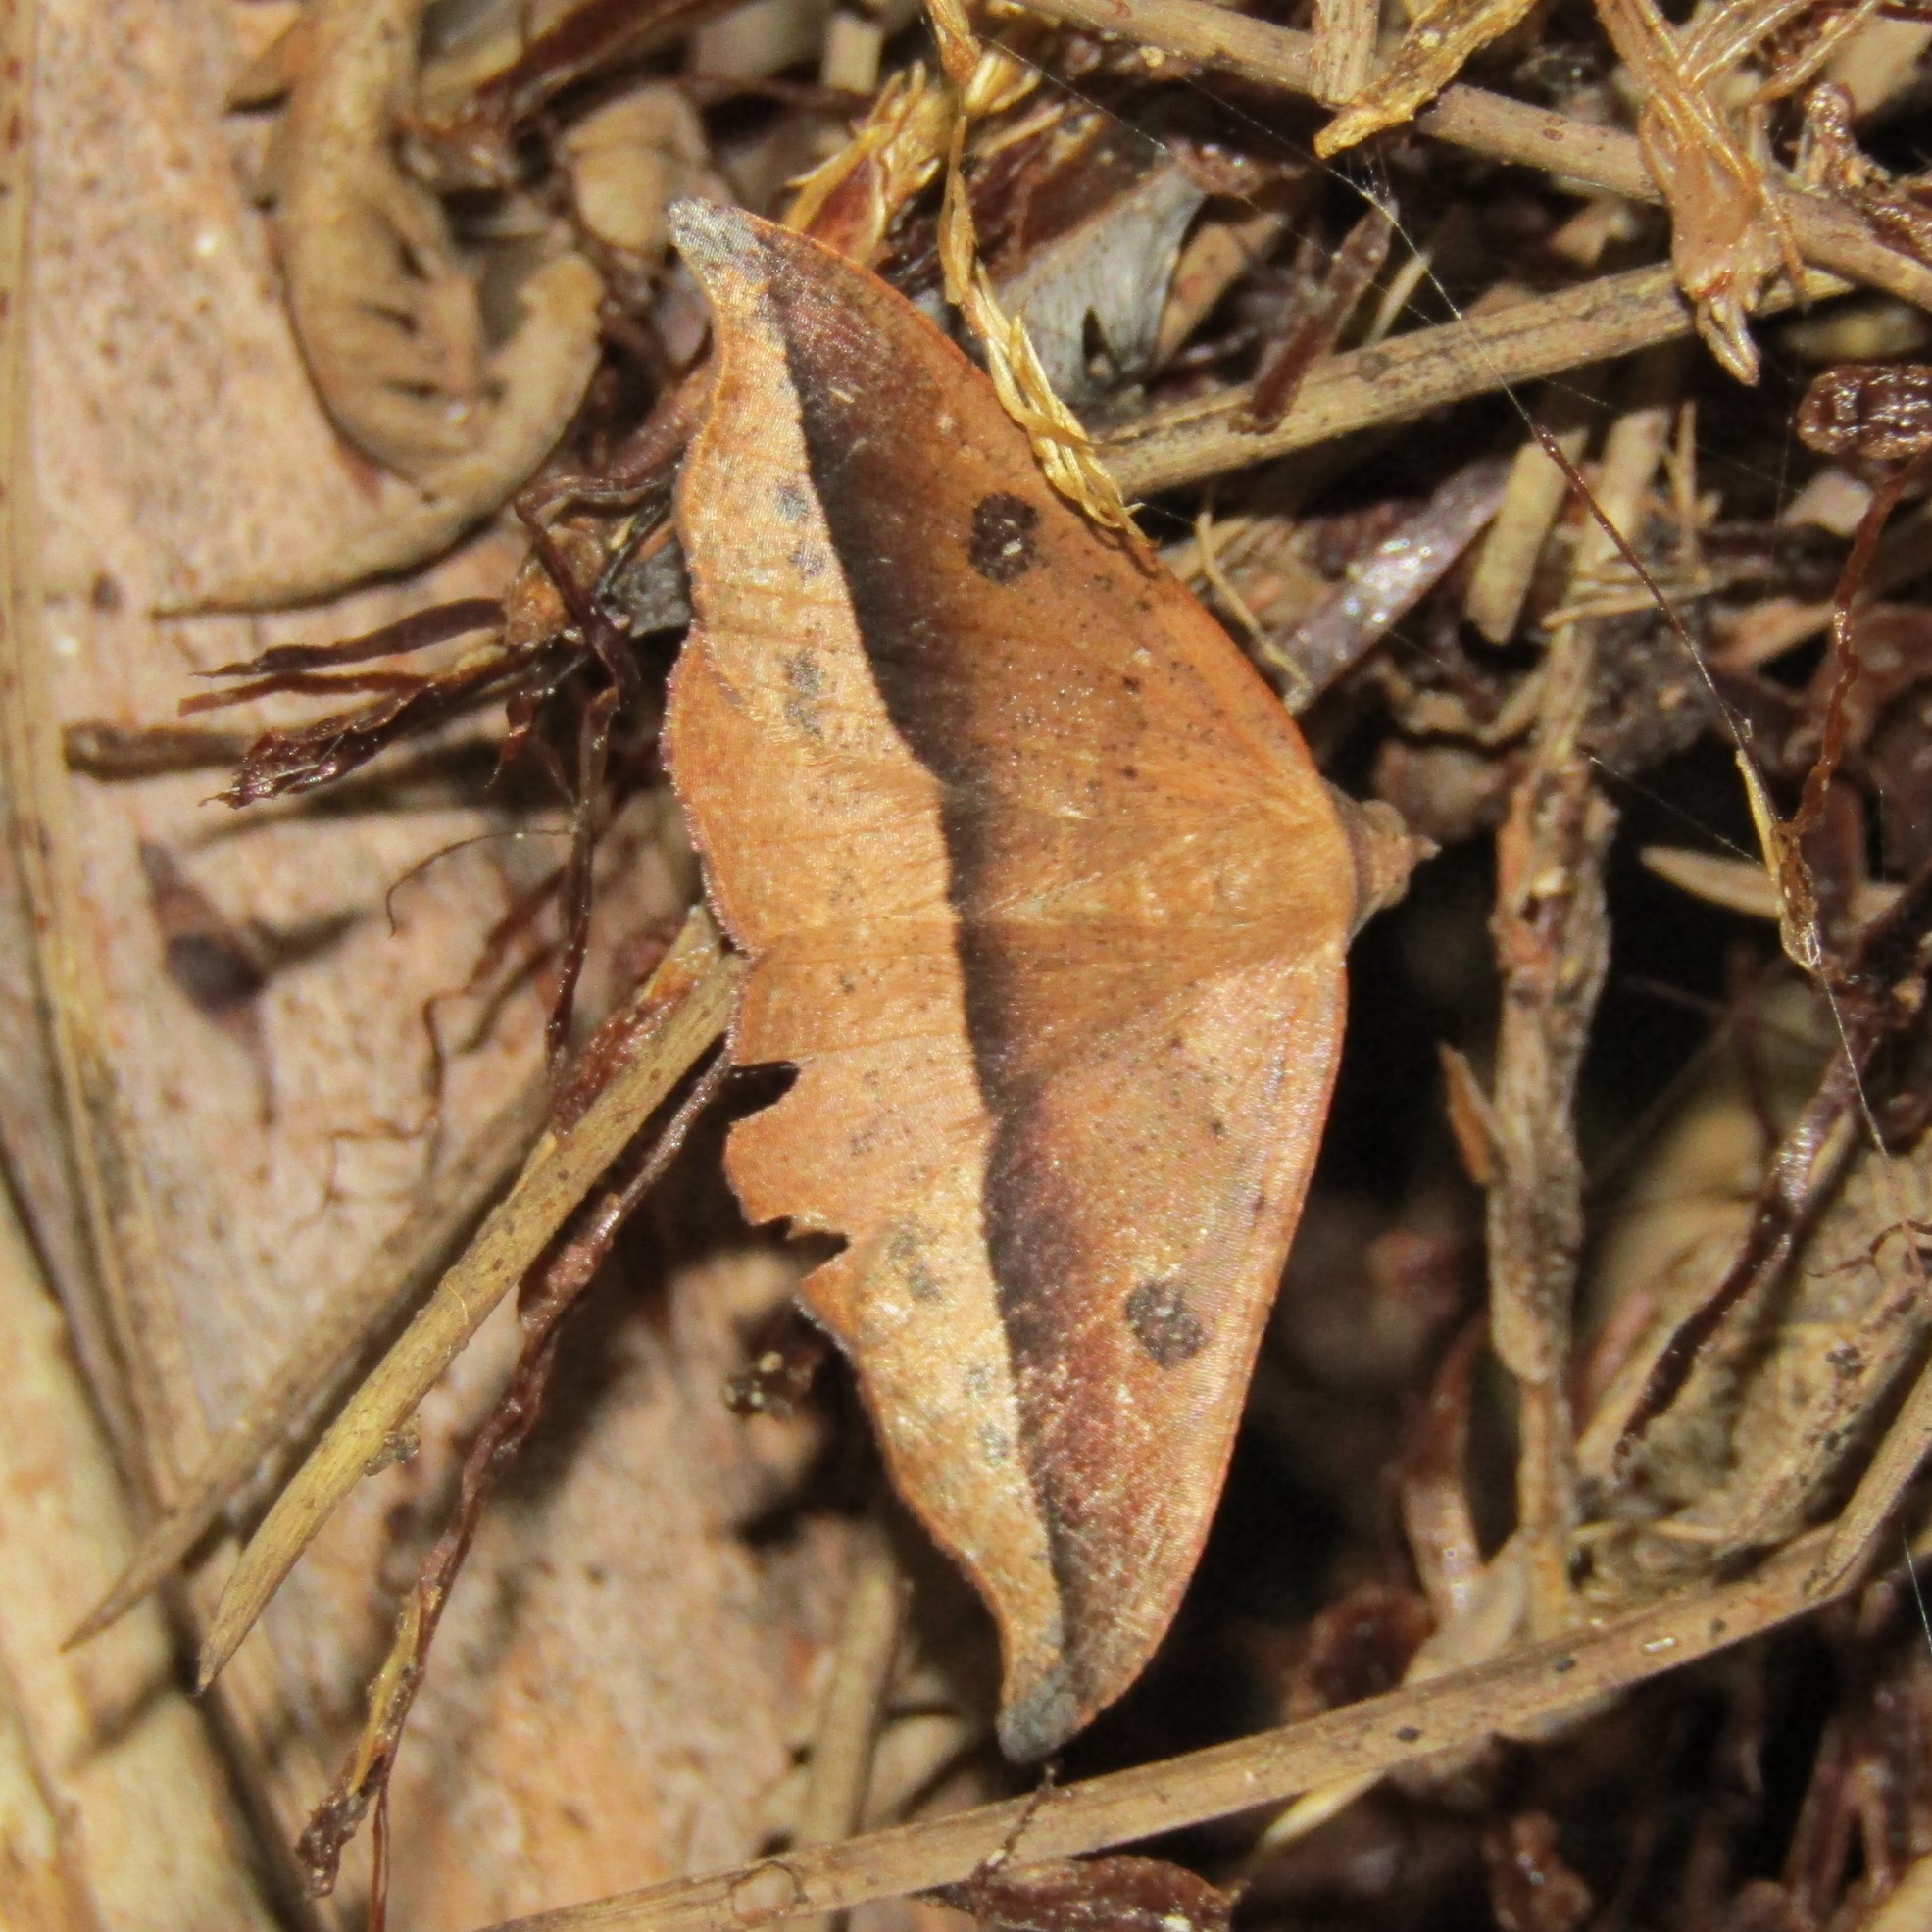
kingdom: Animalia
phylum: Arthropoda
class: Insecta
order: Lepidoptera
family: Geometridae
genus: Sarisa
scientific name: Sarisa muriferata
